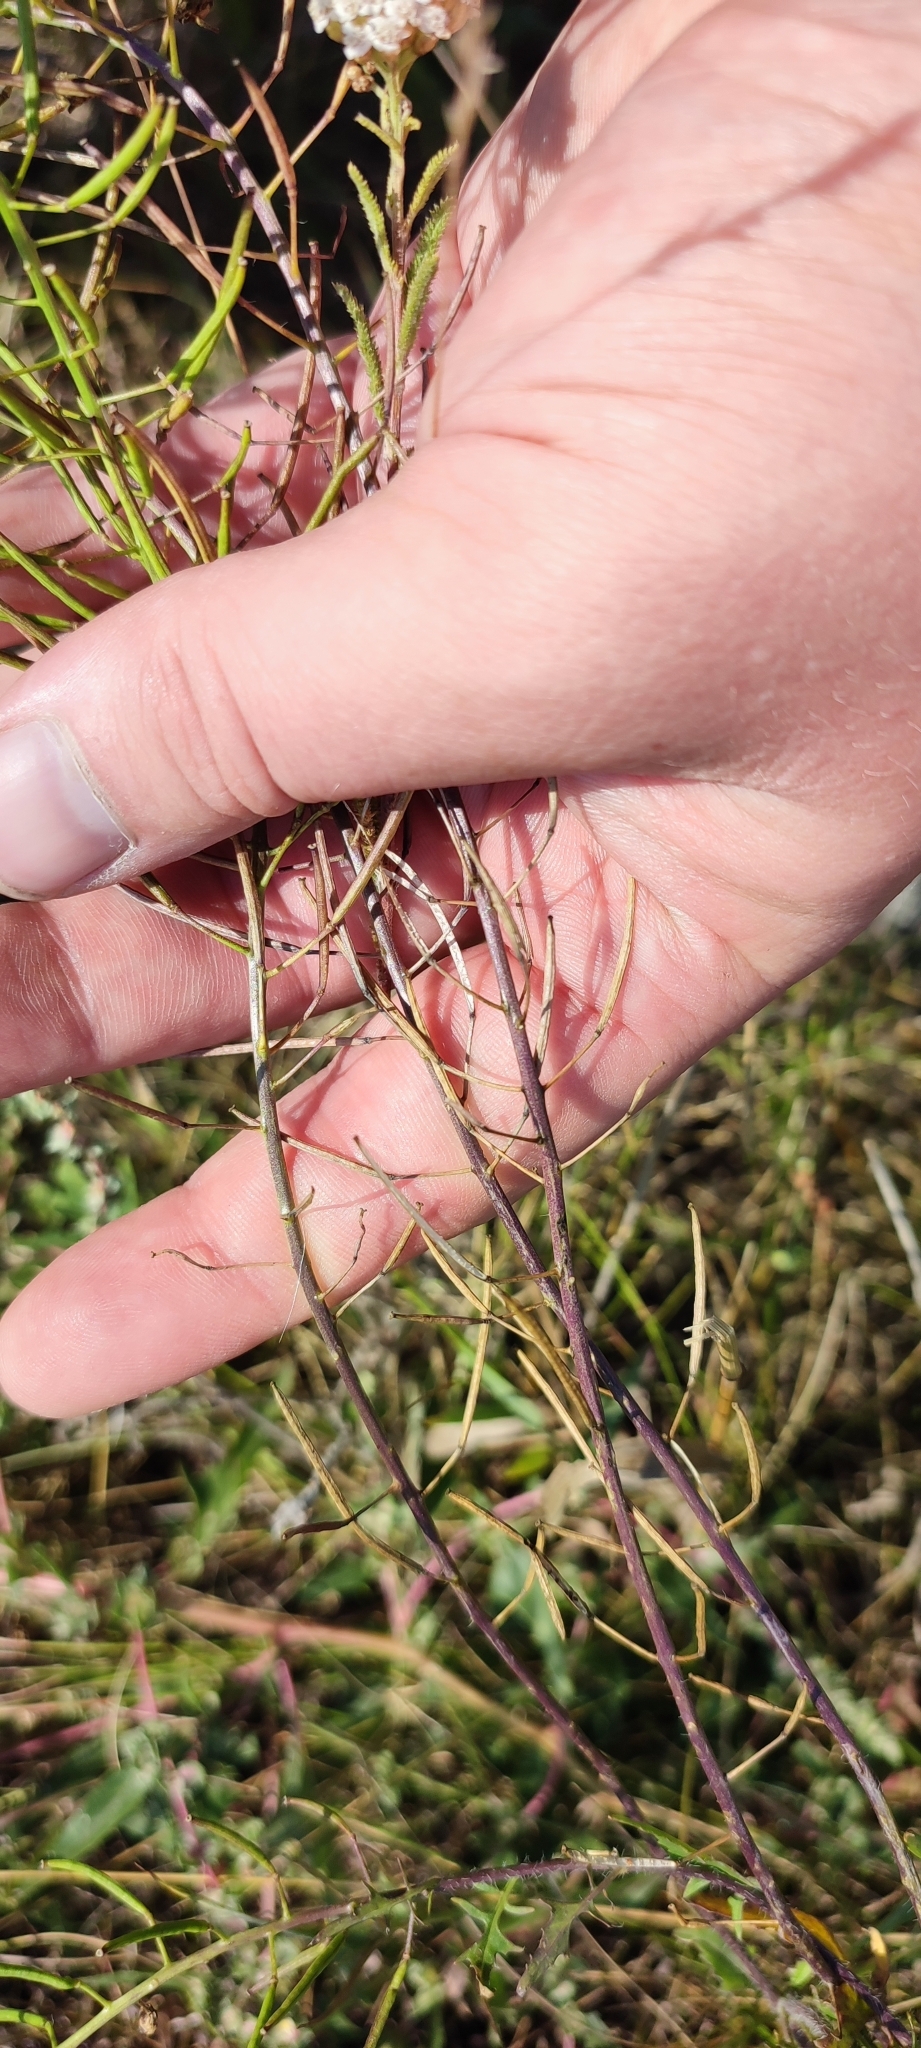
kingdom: Plantae
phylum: Tracheophyta
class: Magnoliopsida
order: Brassicales
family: Brassicaceae
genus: Sisymbrium
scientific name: Sisymbrium loeselii
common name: False london-rocket
